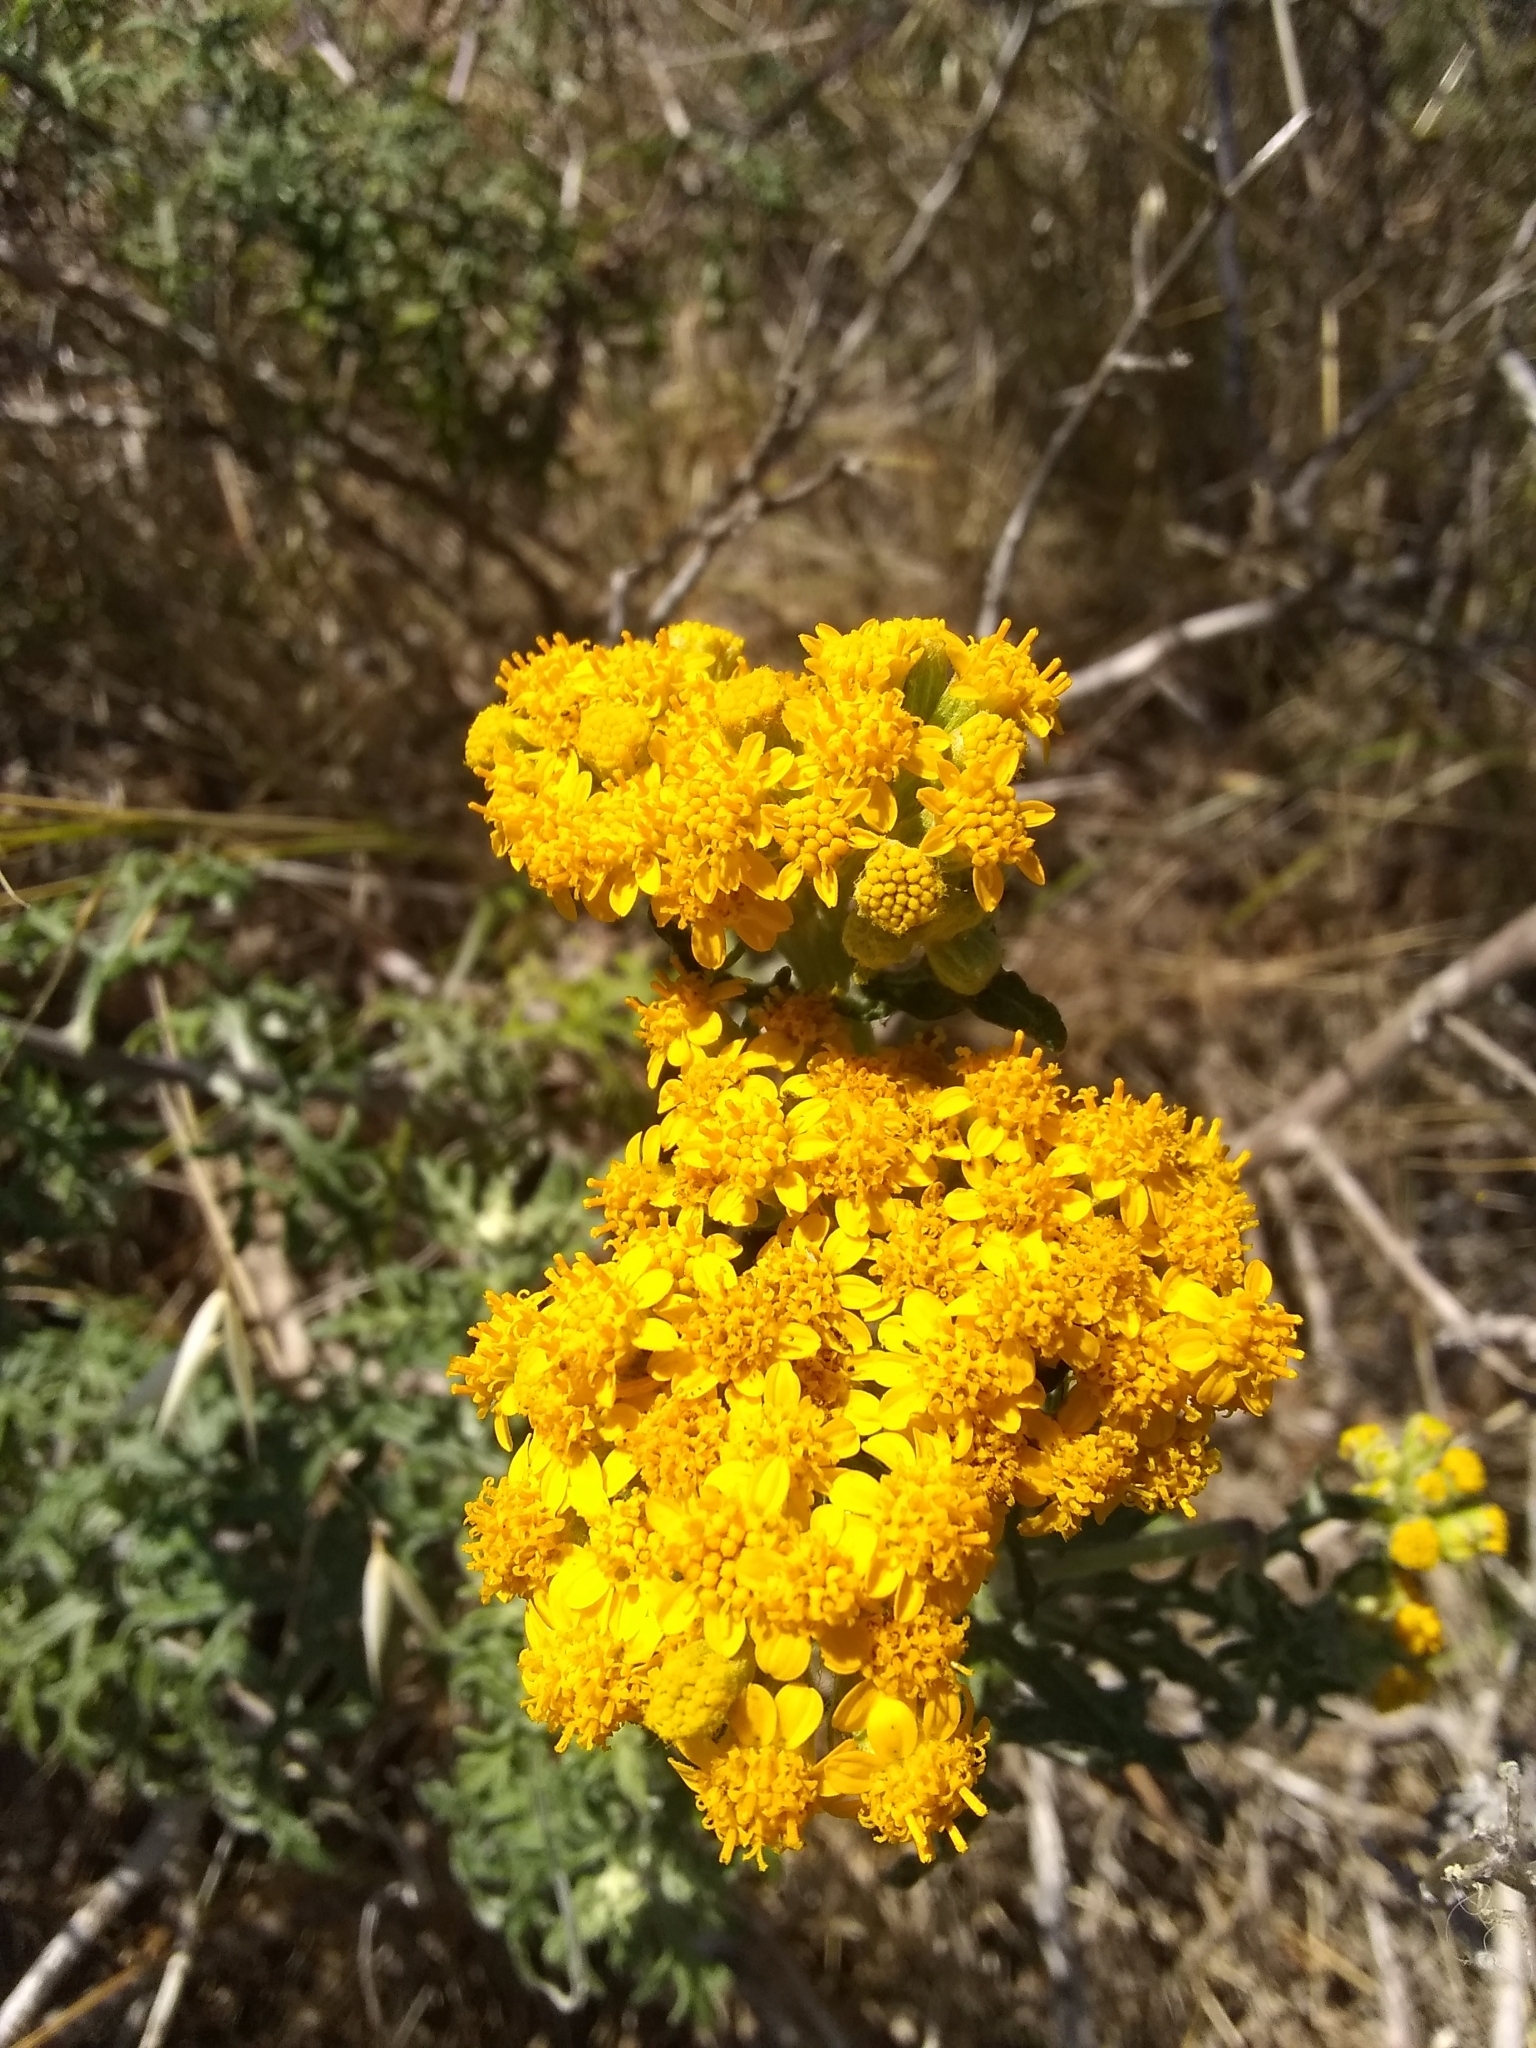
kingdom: Plantae
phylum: Tracheophyta
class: Magnoliopsida
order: Asterales
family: Asteraceae
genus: Eriophyllum
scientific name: Eriophyllum staechadifolium
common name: Lizardtail
